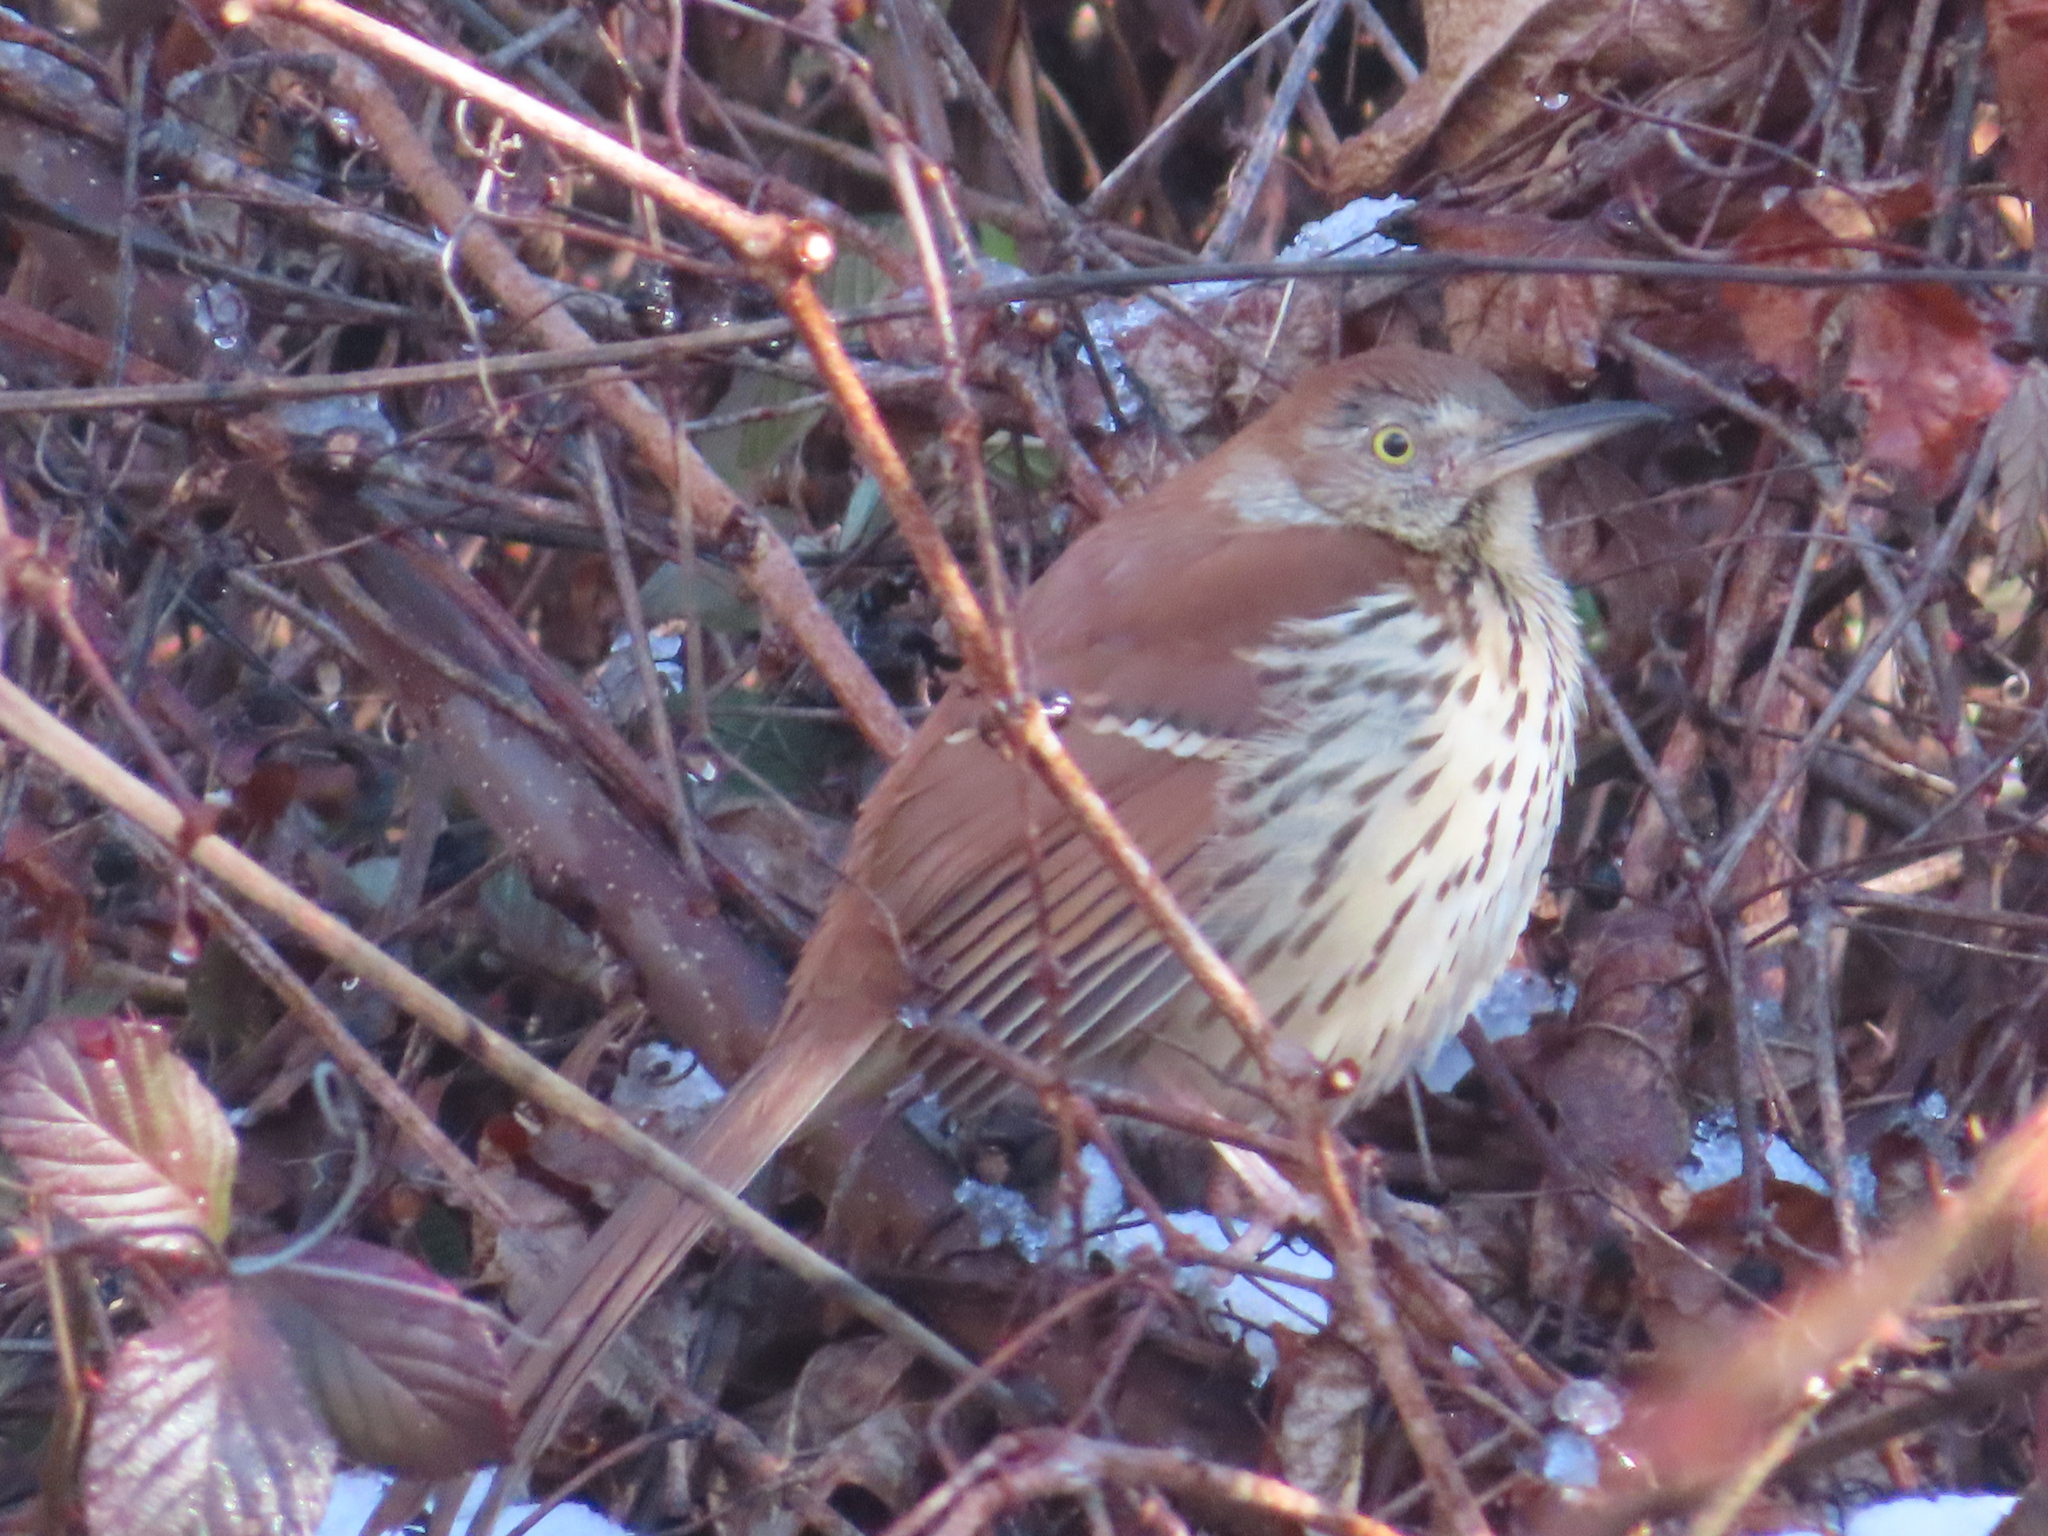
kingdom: Animalia
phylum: Chordata
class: Aves
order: Passeriformes
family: Mimidae
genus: Toxostoma
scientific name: Toxostoma rufum
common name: Brown thrasher
